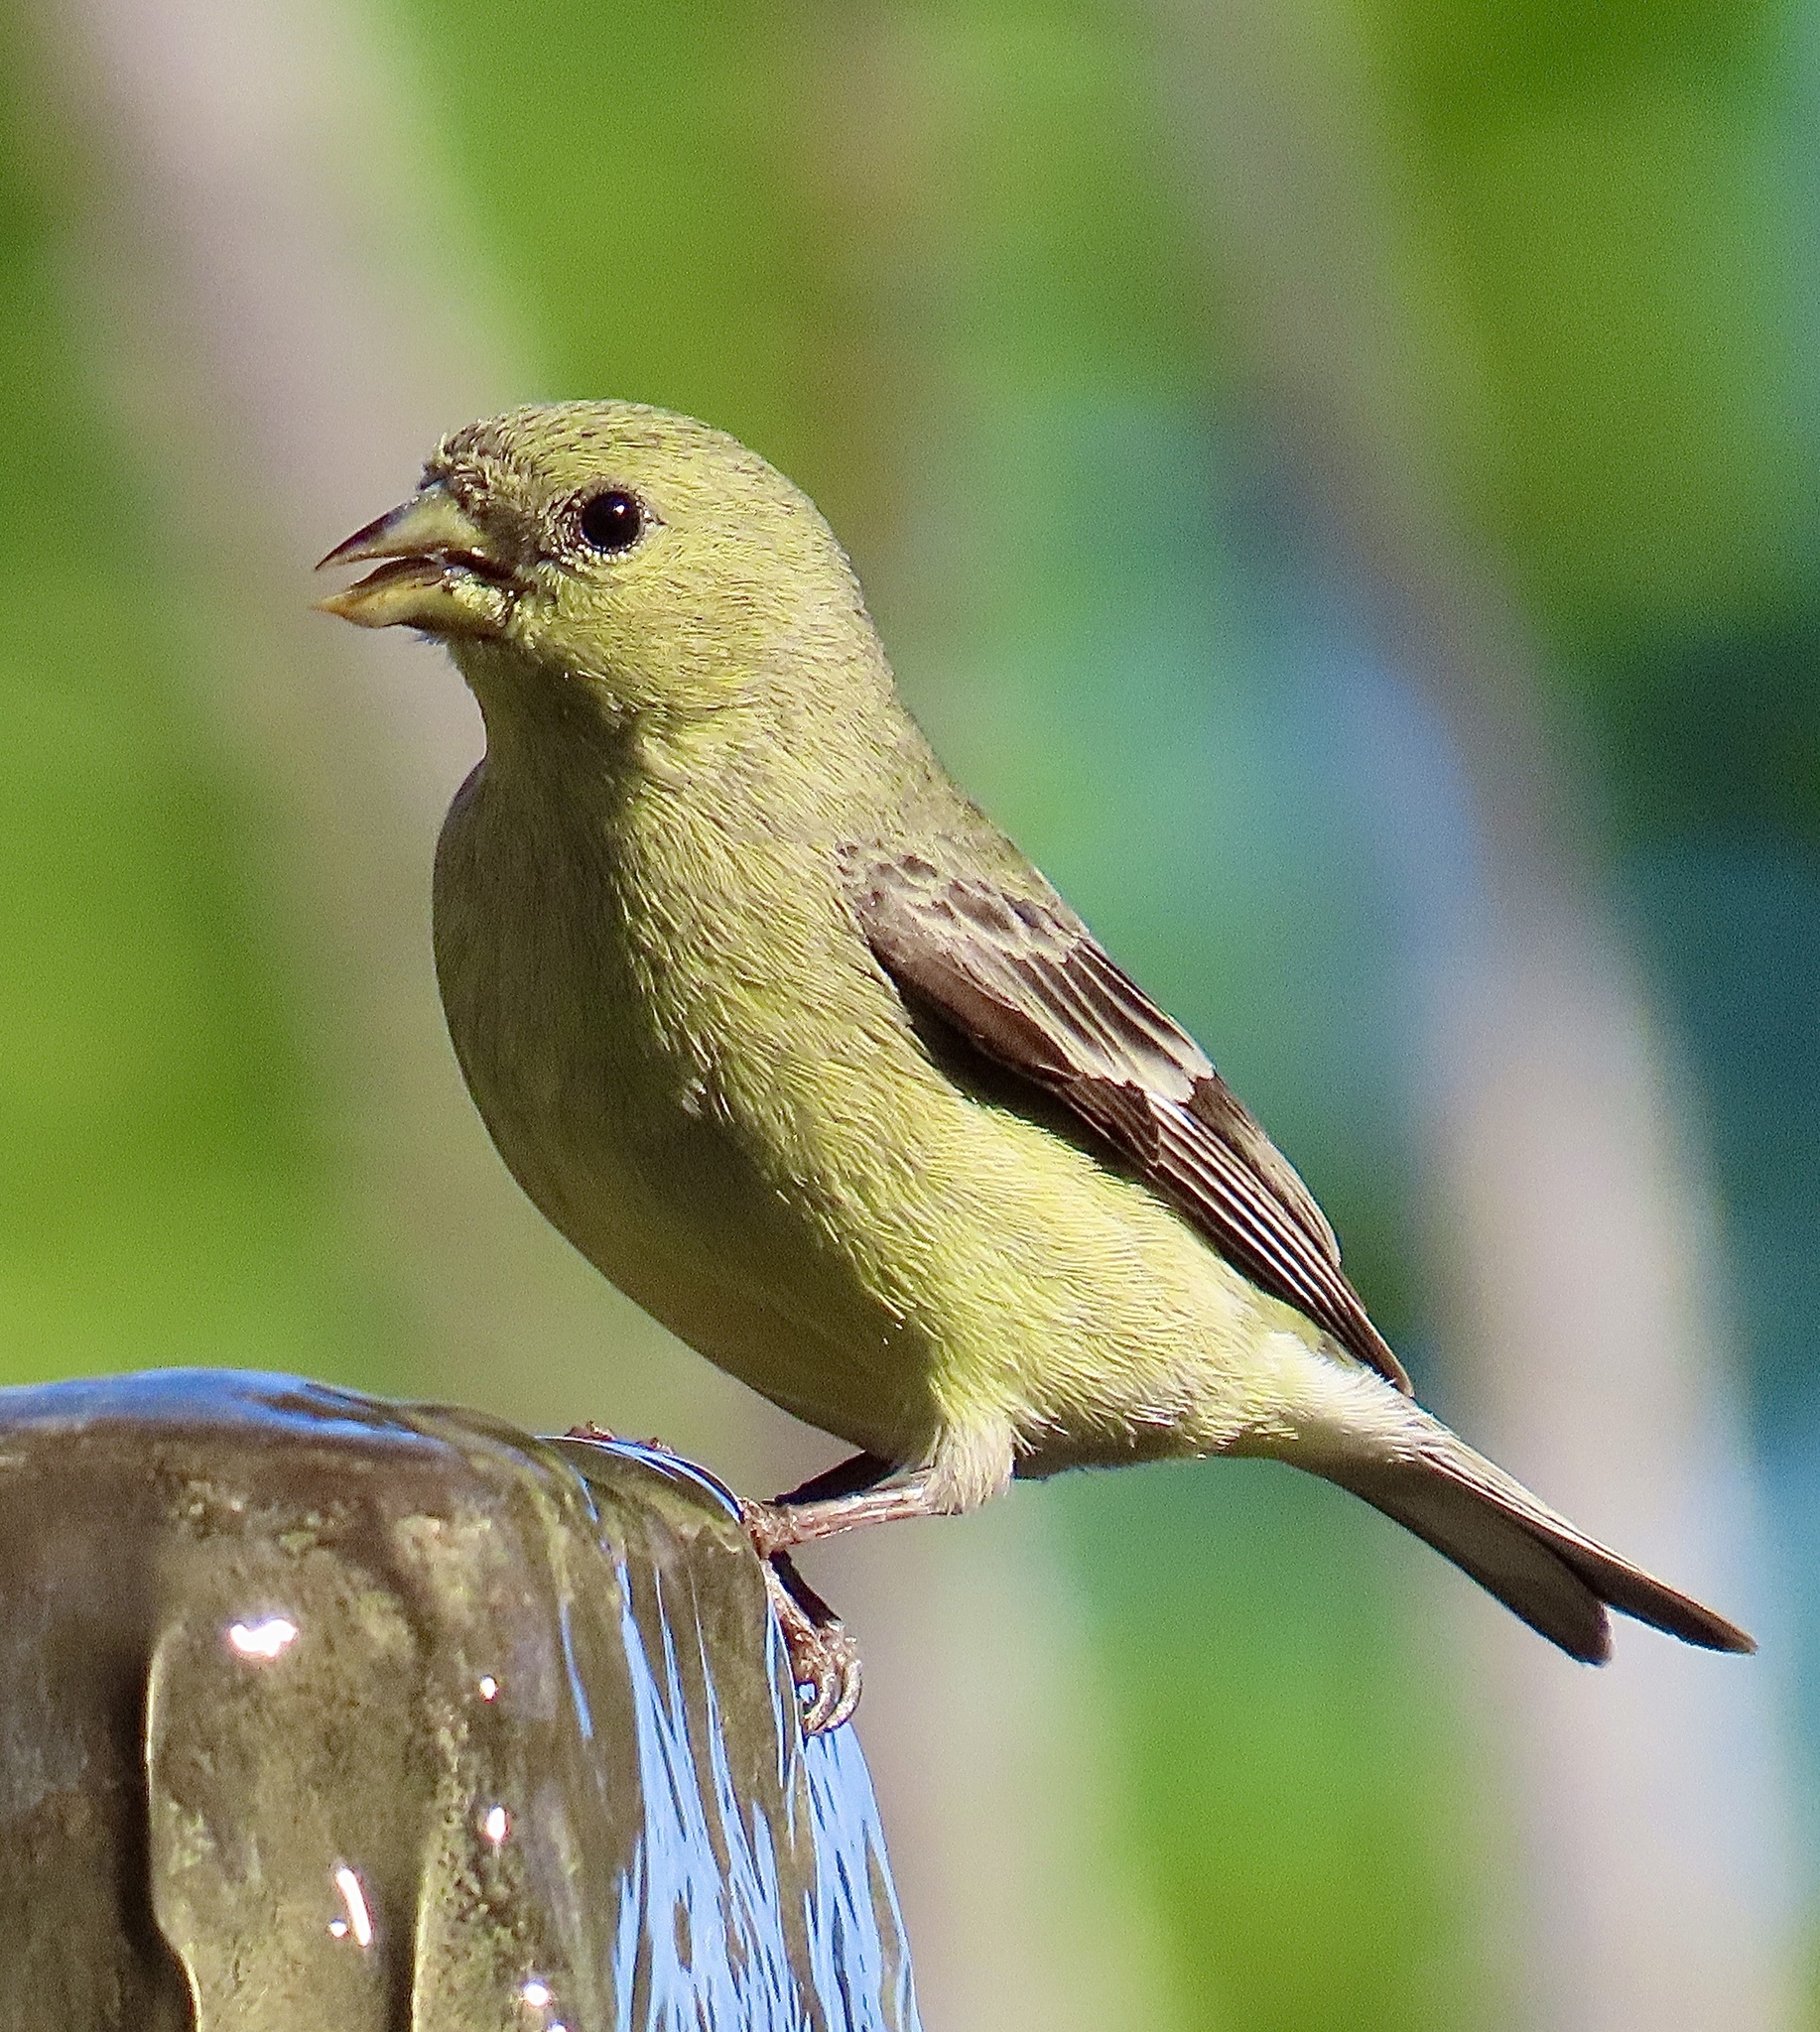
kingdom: Animalia
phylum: Chordata
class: Aves
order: Passeriformes
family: Fringillidae
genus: Spinus
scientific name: Spinus psaltria
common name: Lesser goldfinch
